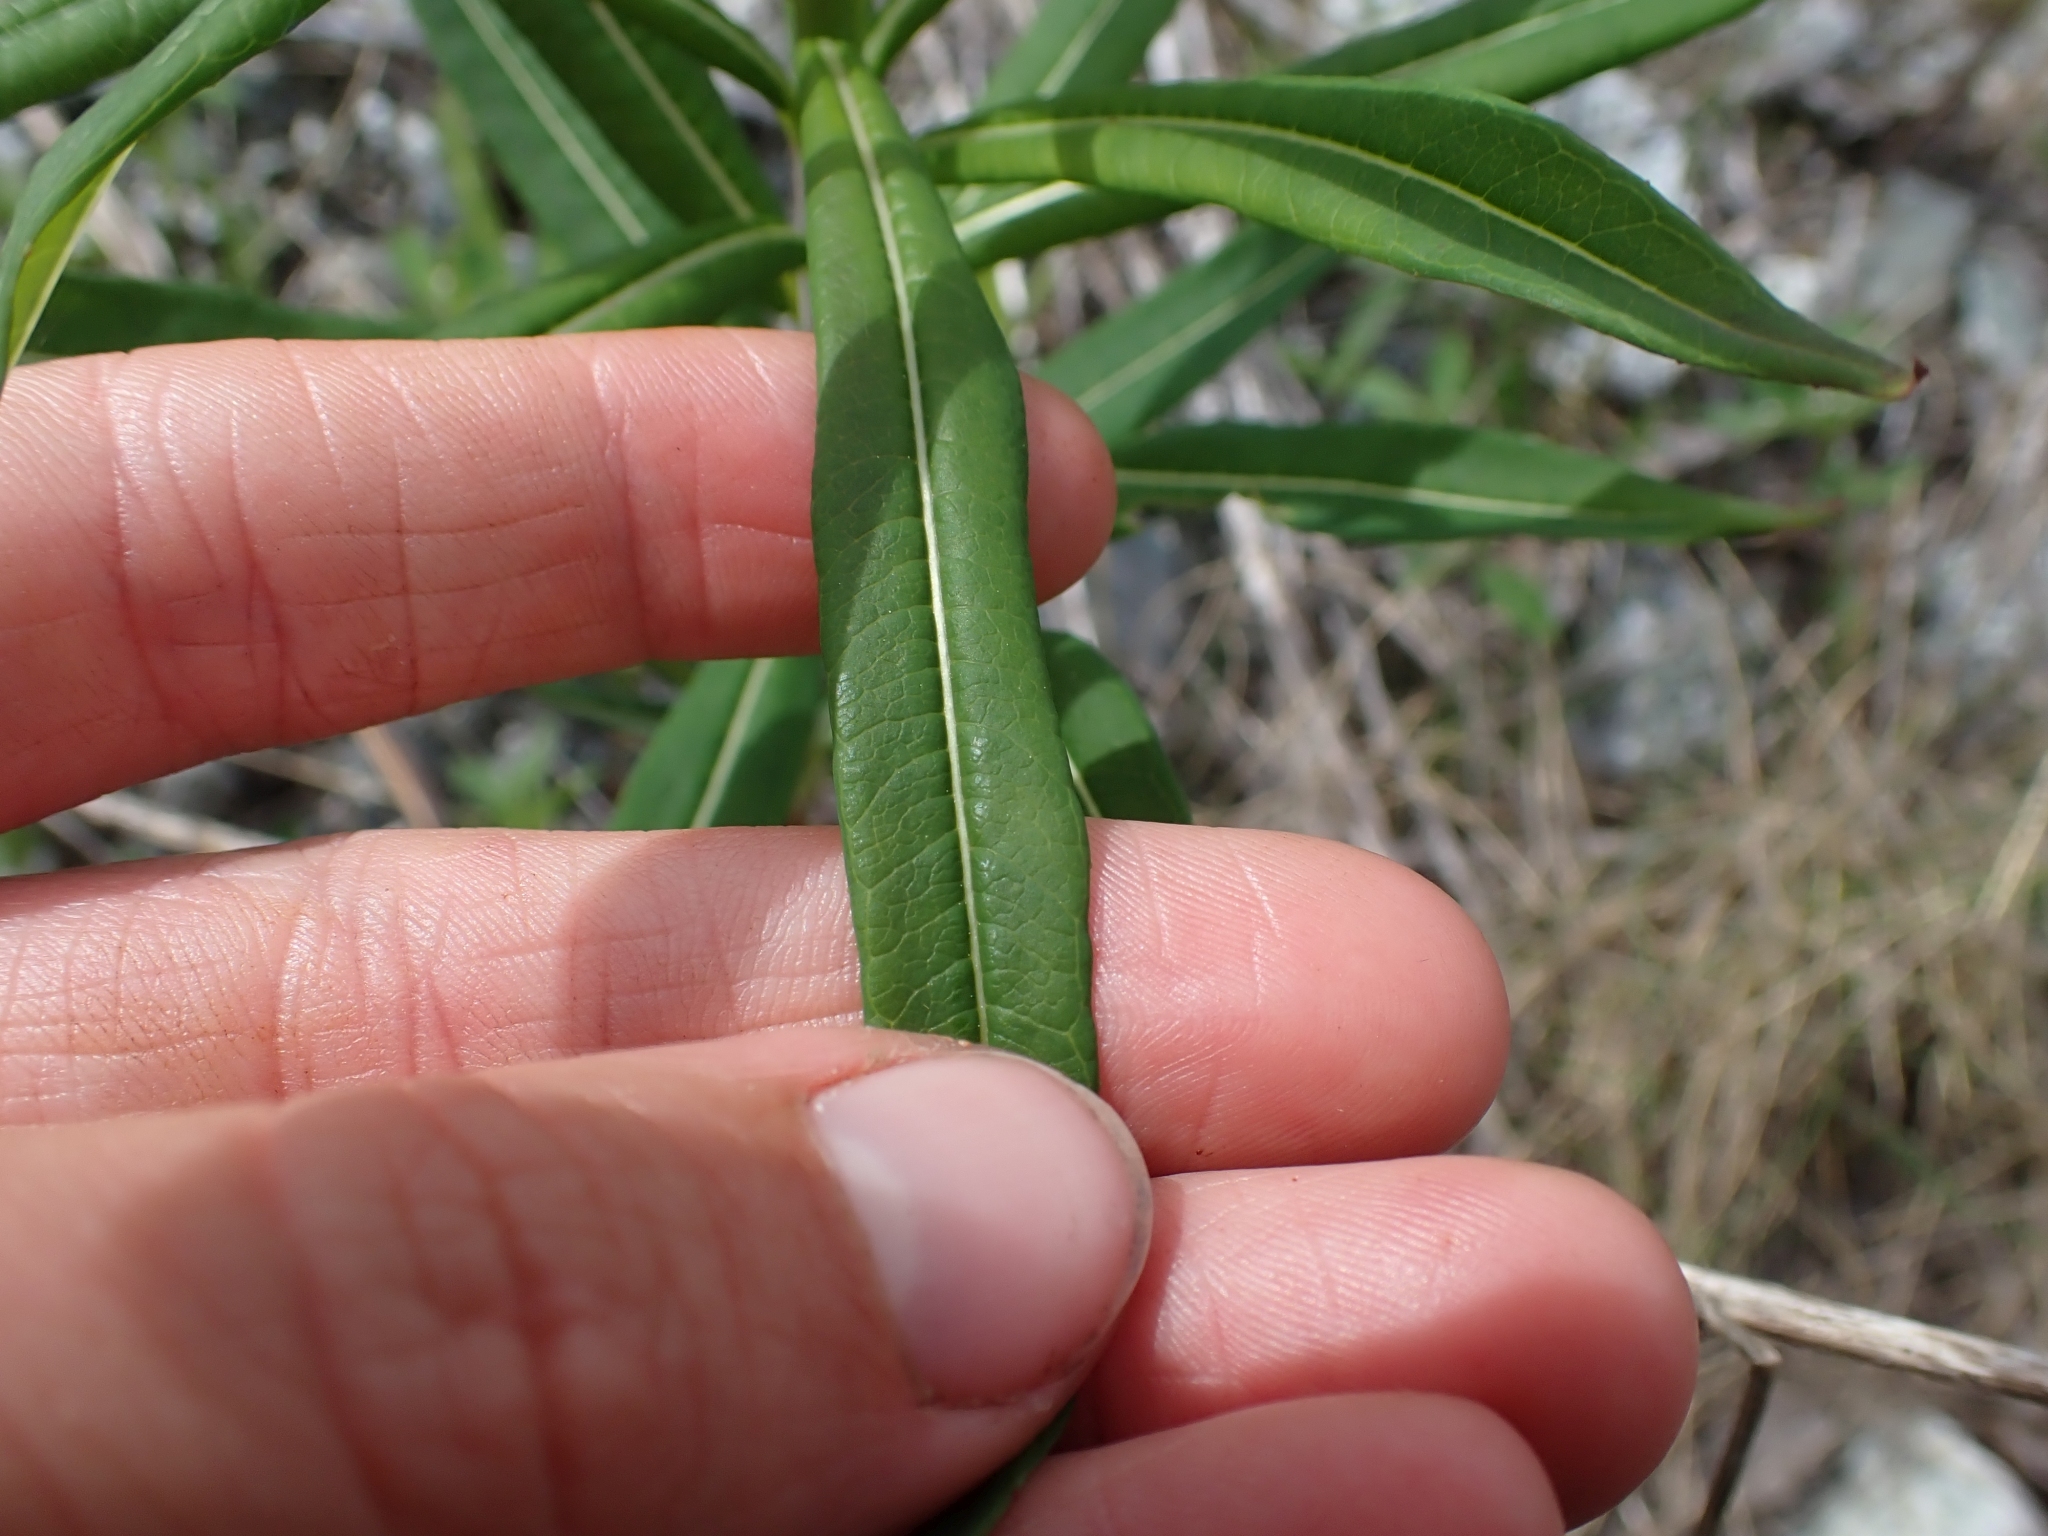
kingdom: Plantae
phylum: Tracheophyta
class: Magnoliopsida
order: Myrtales
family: Onagraceae
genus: Chamaenerion
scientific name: Chamaenerion angustifolium
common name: Fireweed
